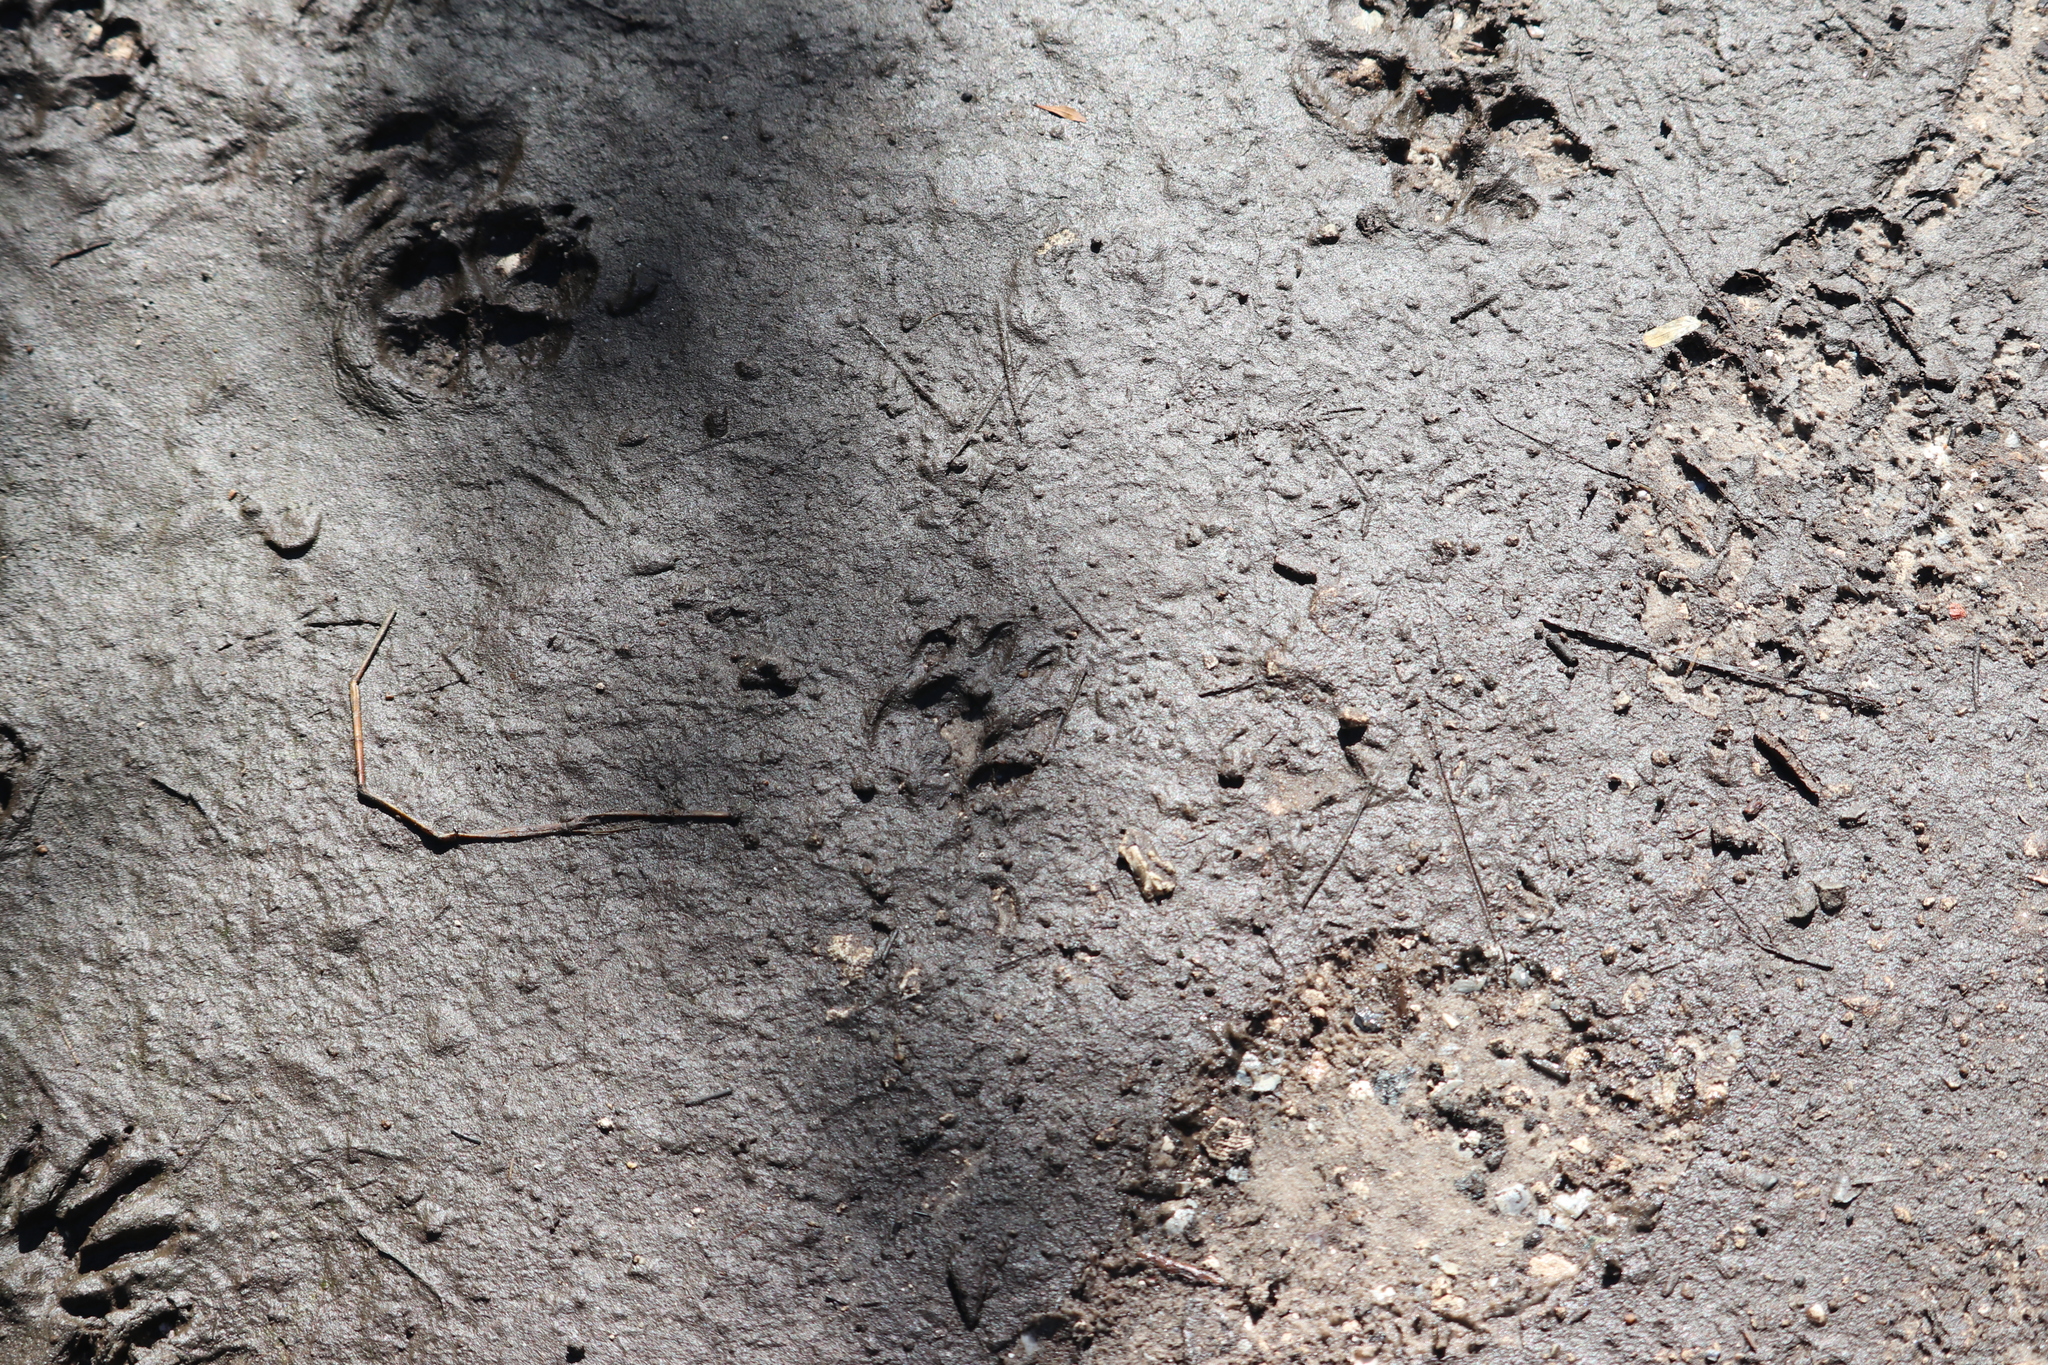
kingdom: Animalia
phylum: Chordata
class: Mammalia
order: Carnivora
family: Procyonidae
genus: Procyon
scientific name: Procyon lotor
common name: Raccoon
